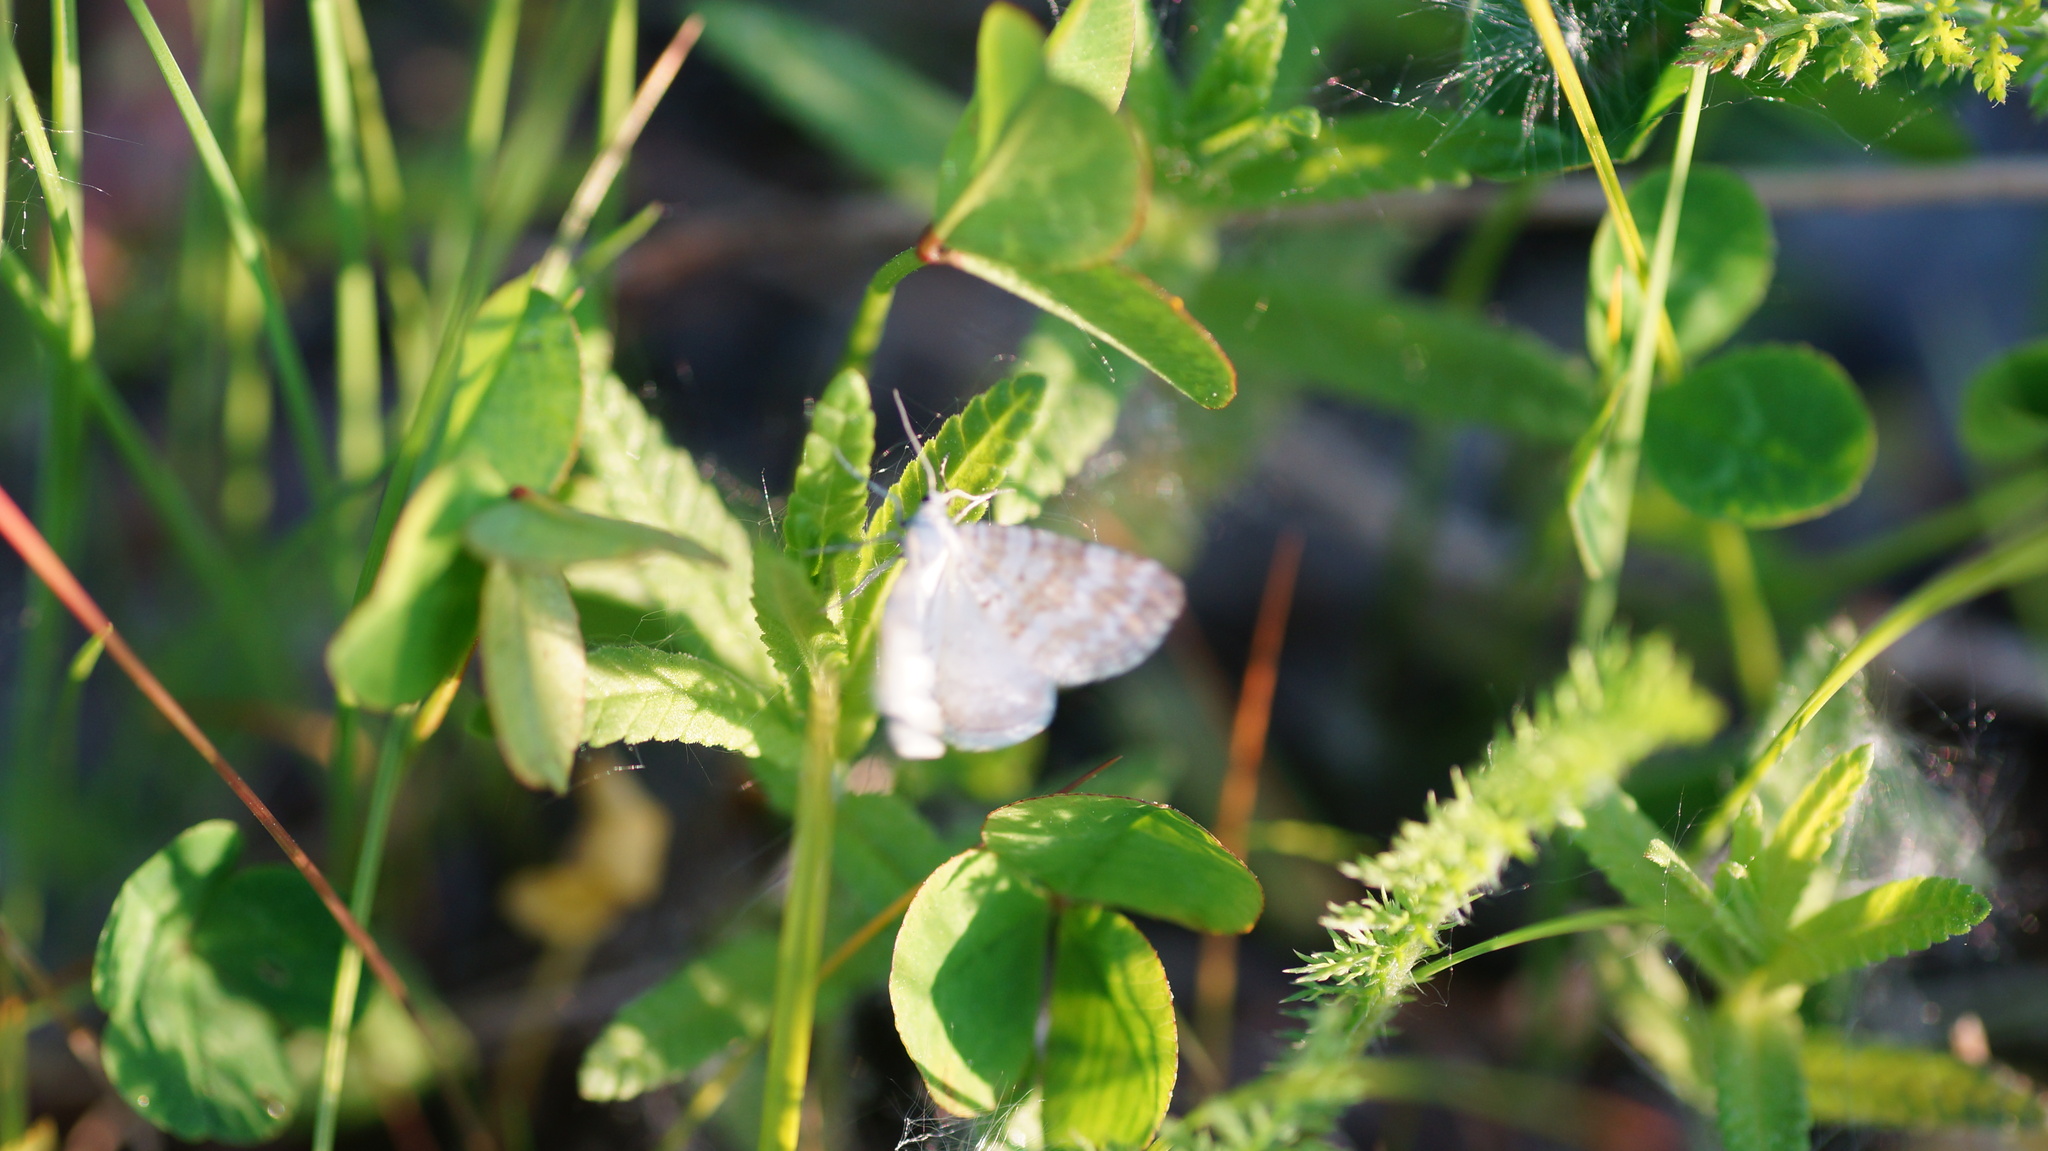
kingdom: Animalia
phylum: Arthropoda
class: Insecta
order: Lepidoptera
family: Geometridae
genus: Perizoma
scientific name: Perizoma albulata
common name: Grass rivulet
